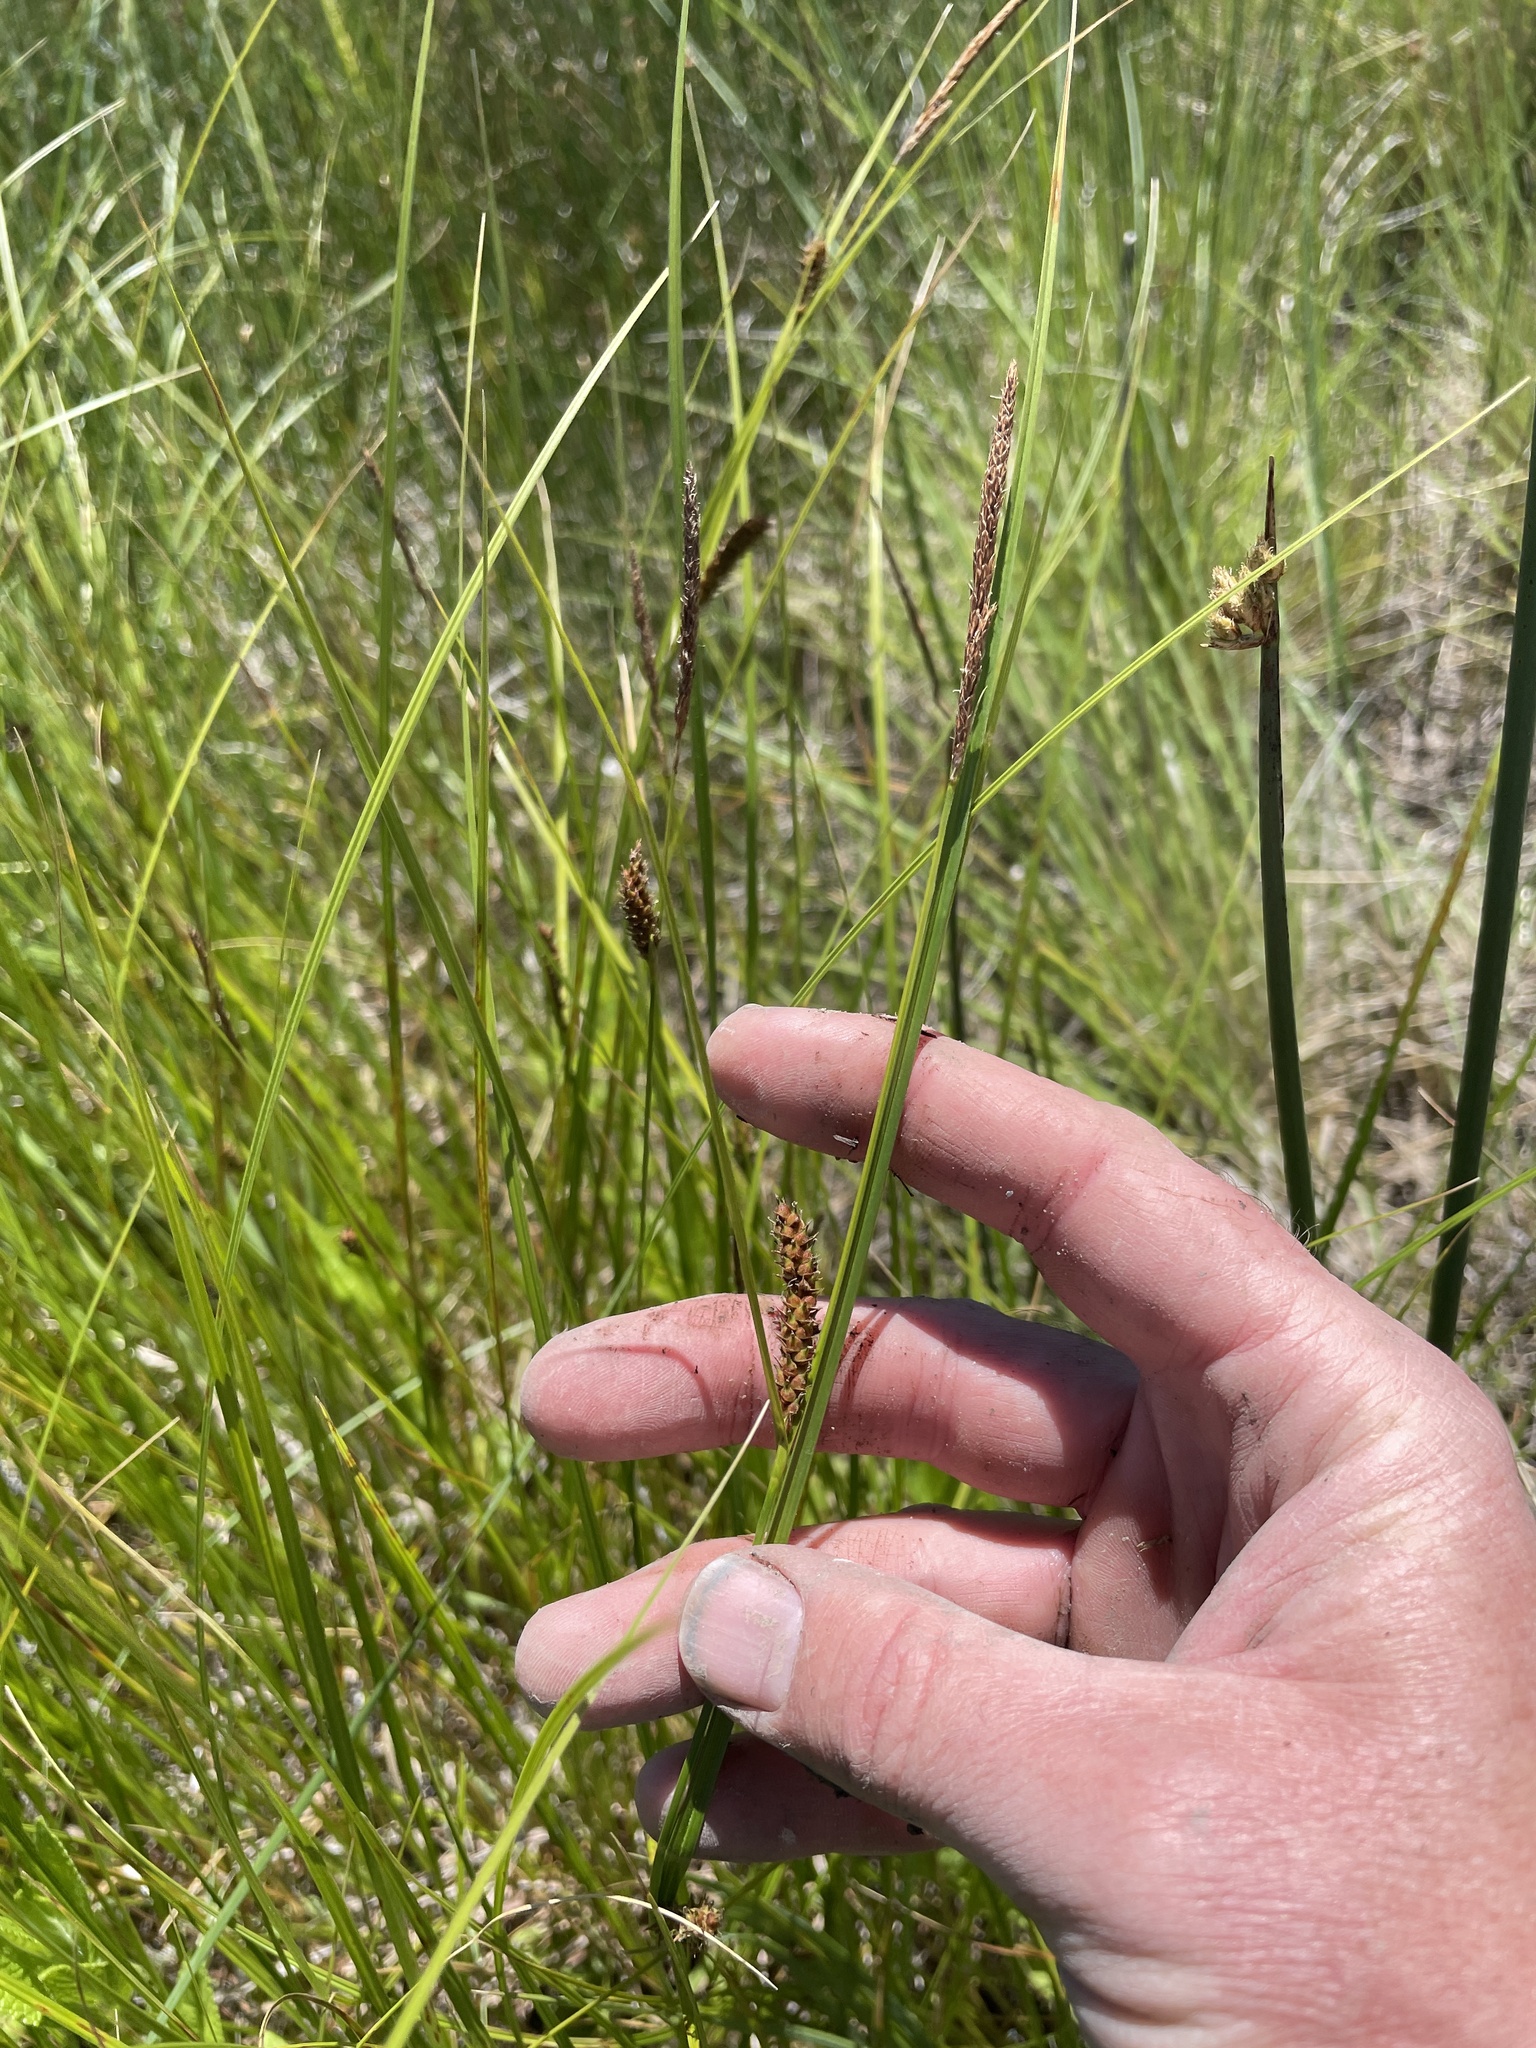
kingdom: Plantae
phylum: Tracheophyta
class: Liliopsida
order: Poales
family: Cyperaceae
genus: Carex
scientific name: Carex pellita
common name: Woolly sedge
